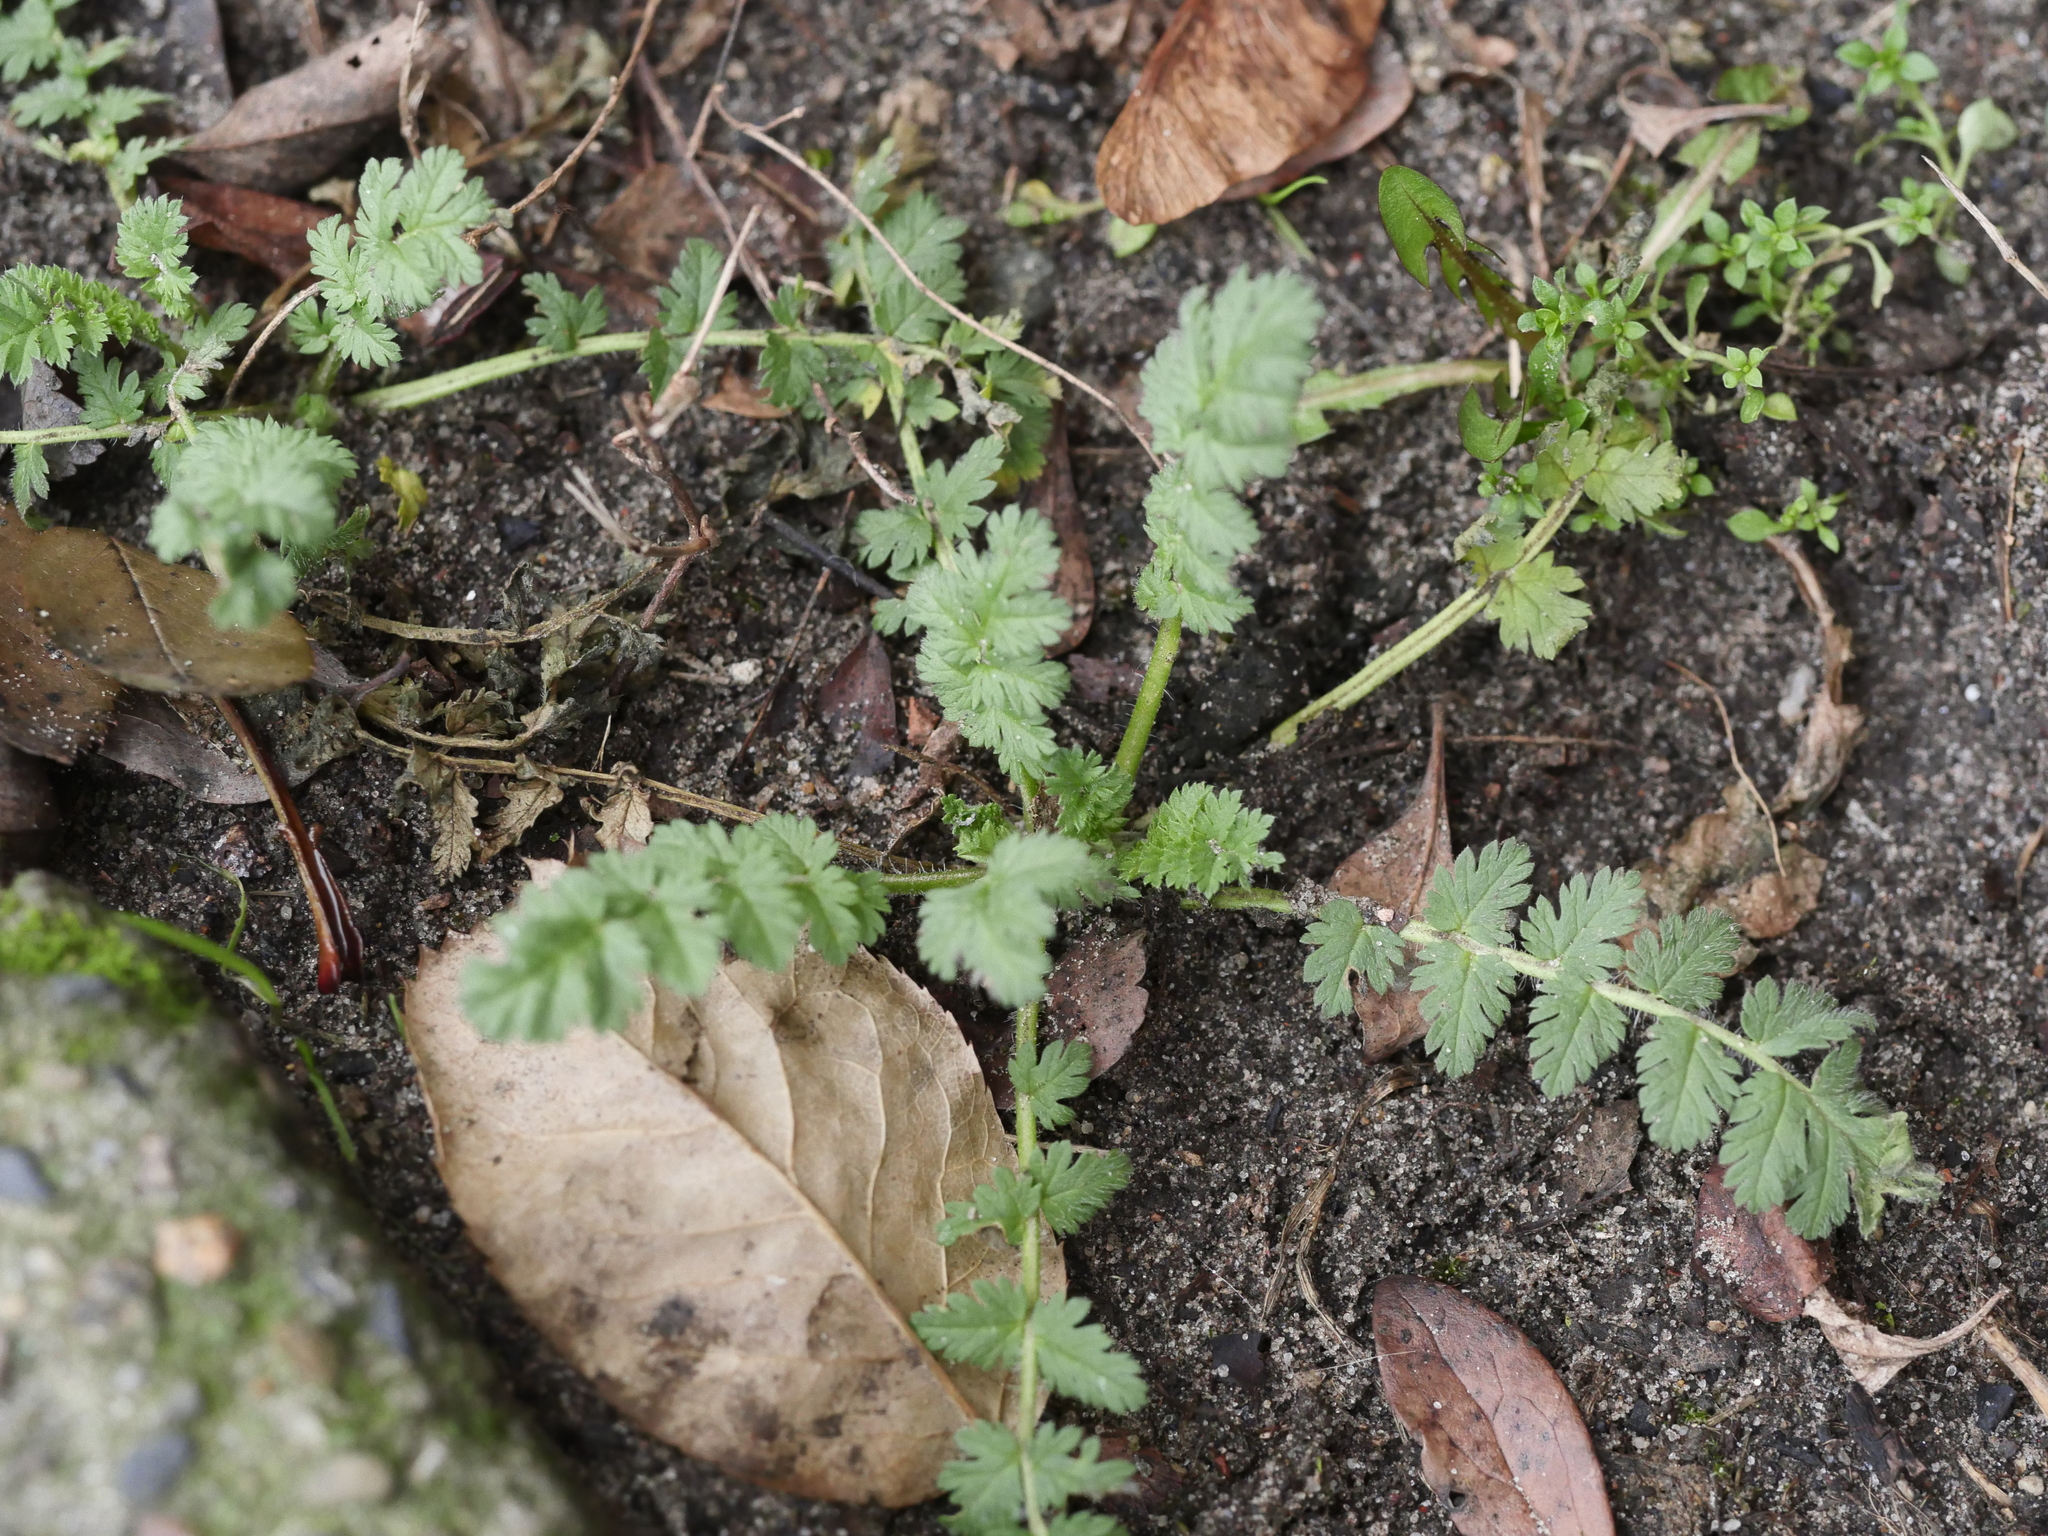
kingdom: Plantae
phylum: Tracheophyta
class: Magnoliopsida
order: Geraniales
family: Geraniaceae
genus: Erodium
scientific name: Erodium cicutarium
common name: Common stork's-bill
